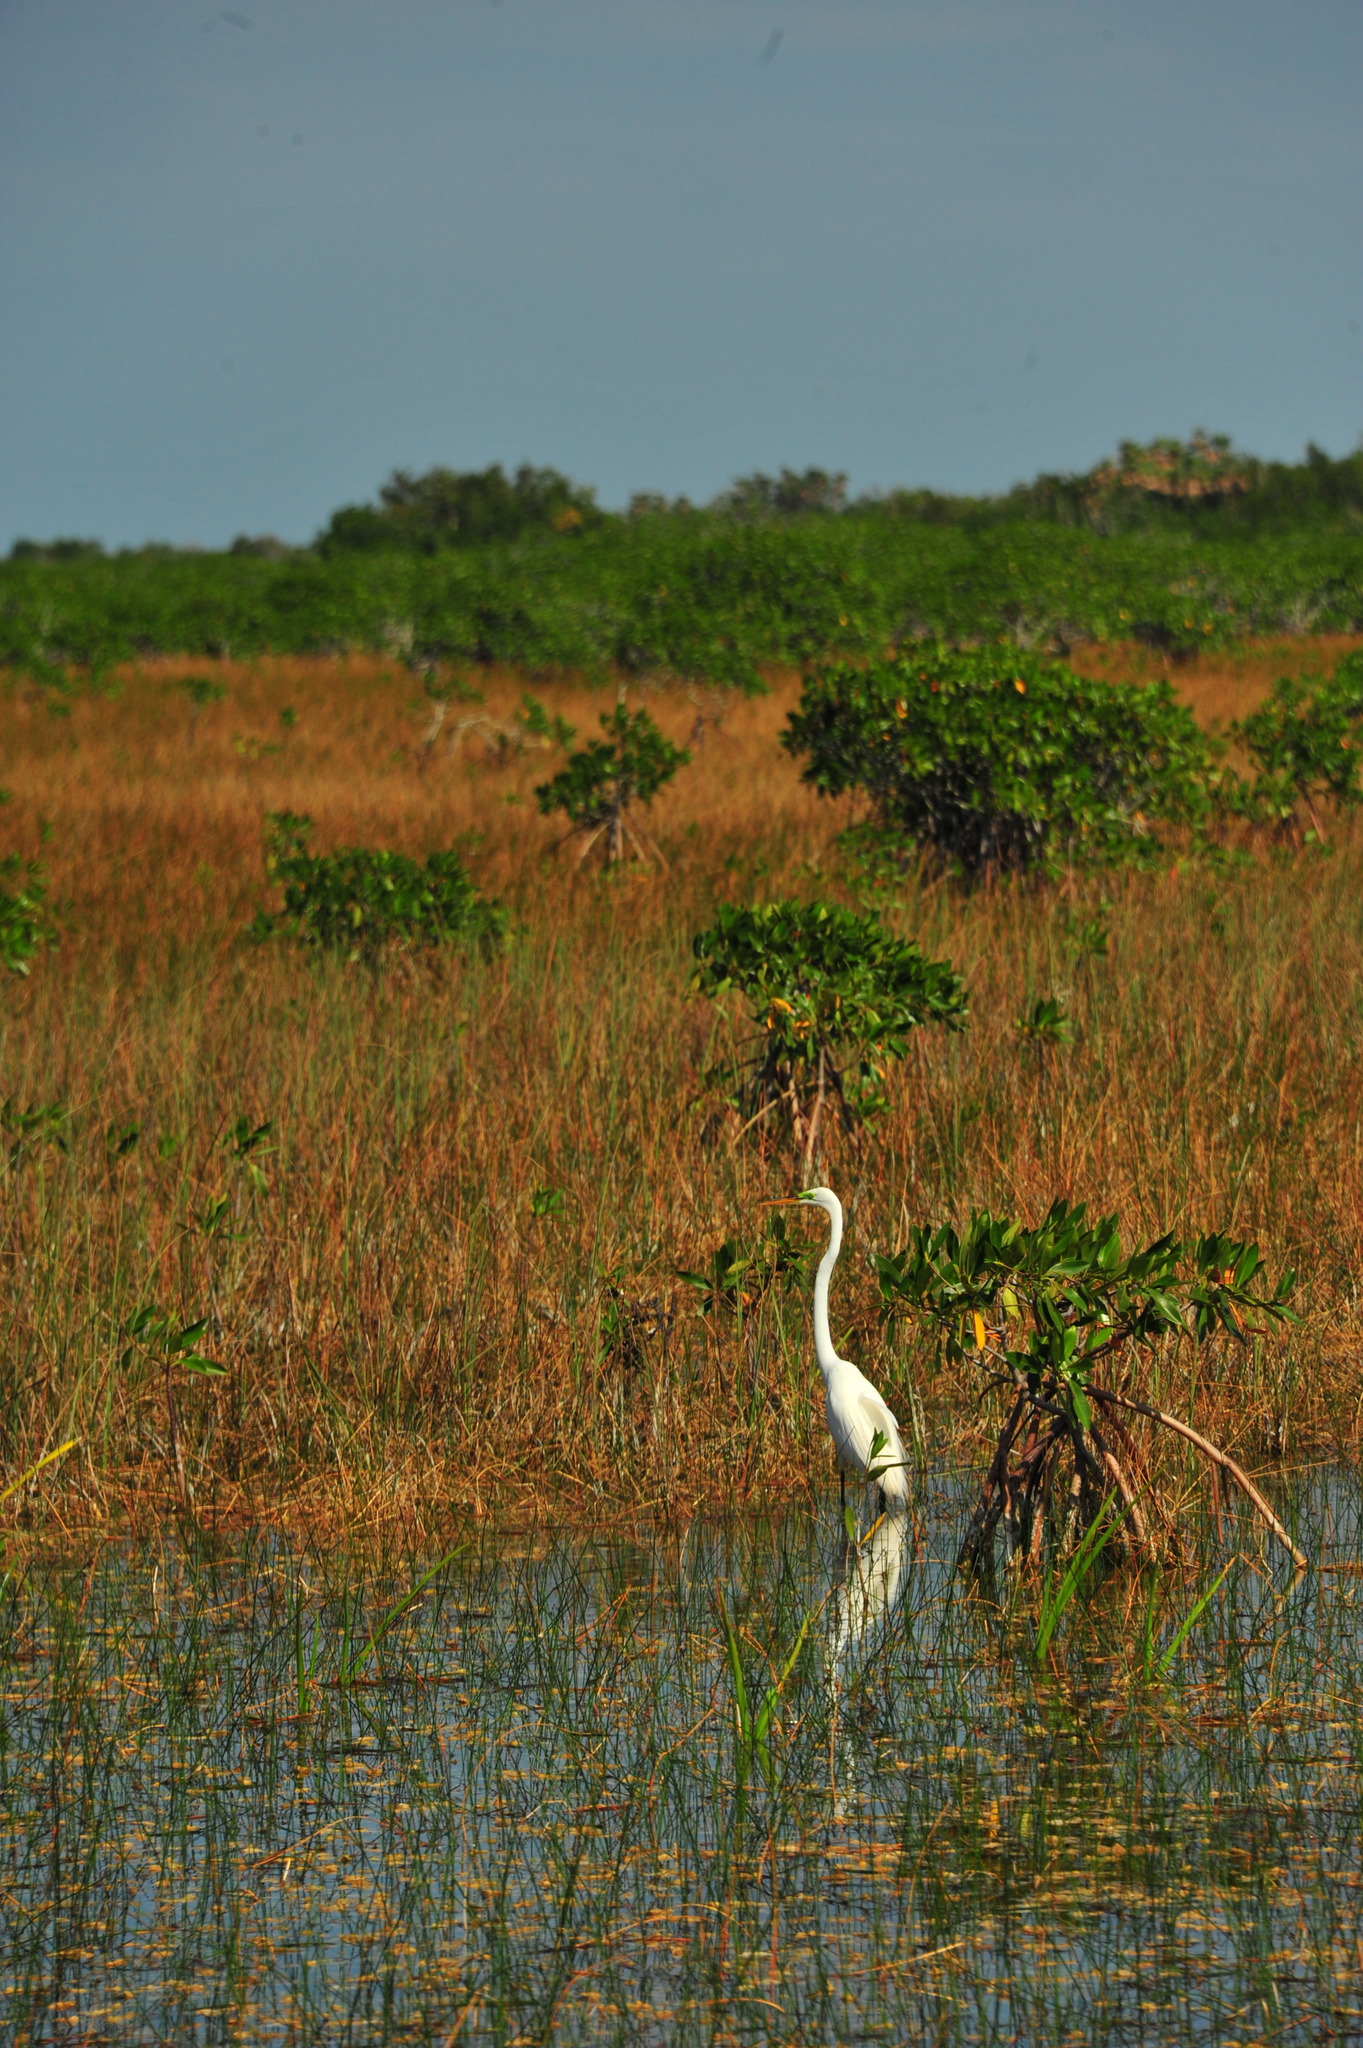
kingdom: Animalia
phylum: Chordata
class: Aves
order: Pelecaniformes
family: Ardeidae
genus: Ardea
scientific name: Ardea alba
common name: Great egret
